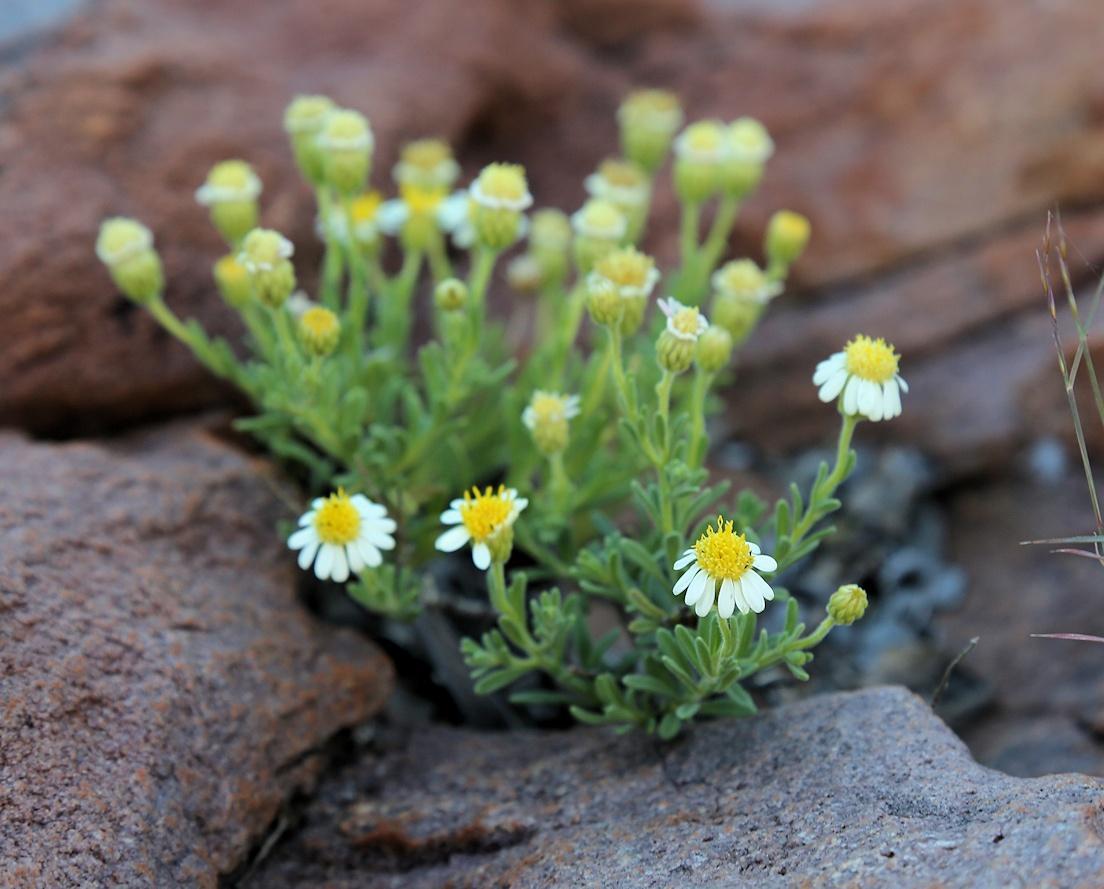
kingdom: Plantae
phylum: Tracheophyta
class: Magnoliopsida
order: Asterales
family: Asteraceae
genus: Felicia
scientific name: Felicia bechuanica
